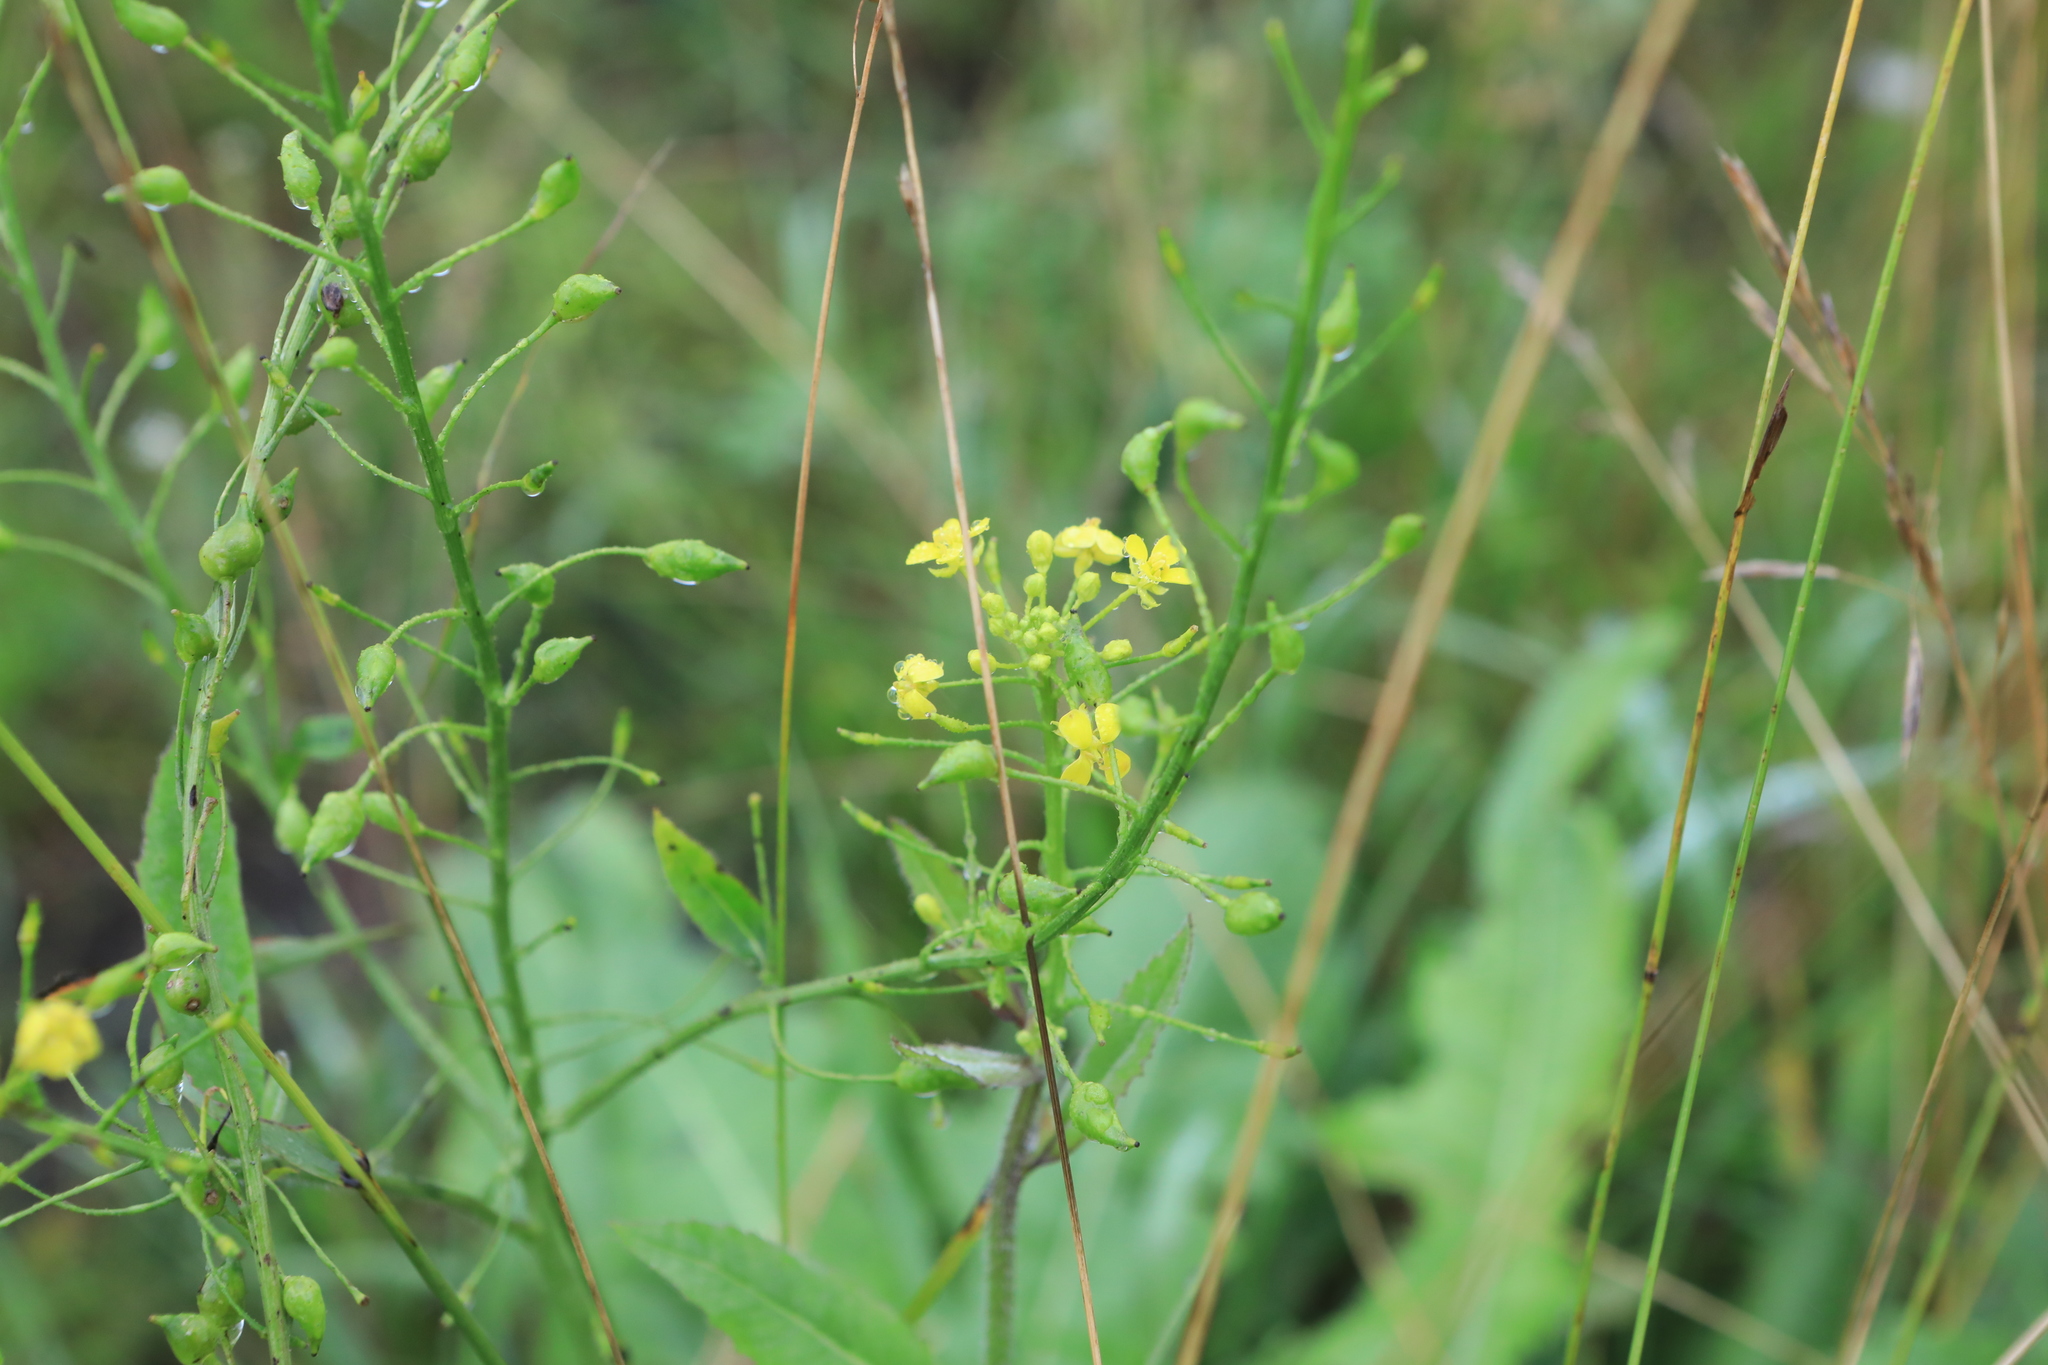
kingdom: Plantae
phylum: Tracheophyta
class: Magnoliopsida
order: Brassicales
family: Brassicaceae
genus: Bunias
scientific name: Bunias orientalis
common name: Warty-cabbage
